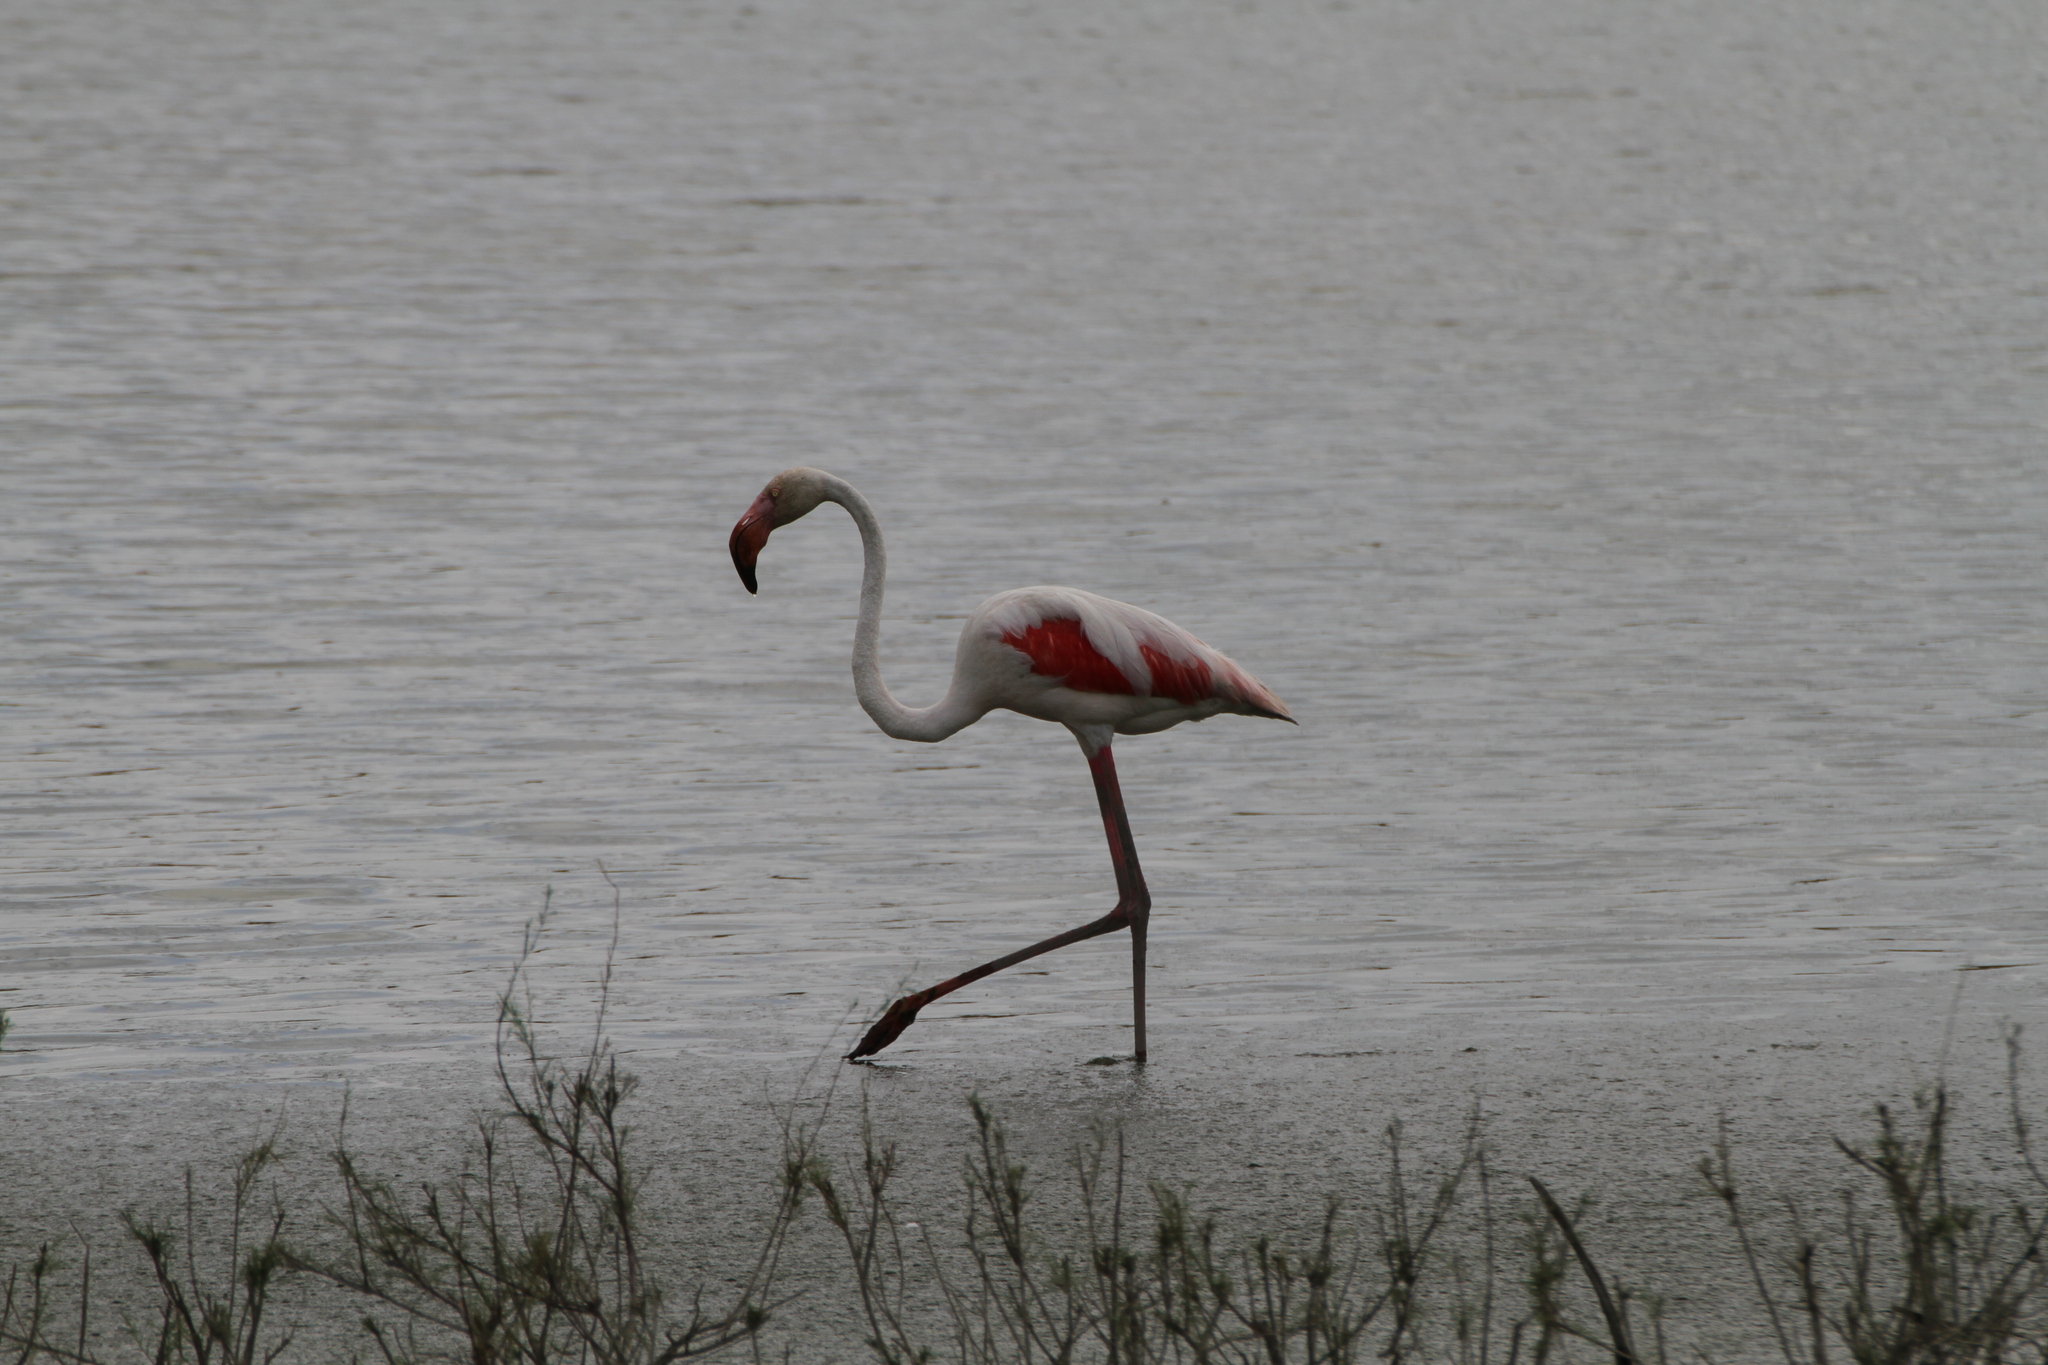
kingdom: Animalia
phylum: Chordata
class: Aves
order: Phoenicopteriformes
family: Phoenicopteridae
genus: Phoenicopterus
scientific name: Phoenicopterus roseus
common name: Greater flamingo
